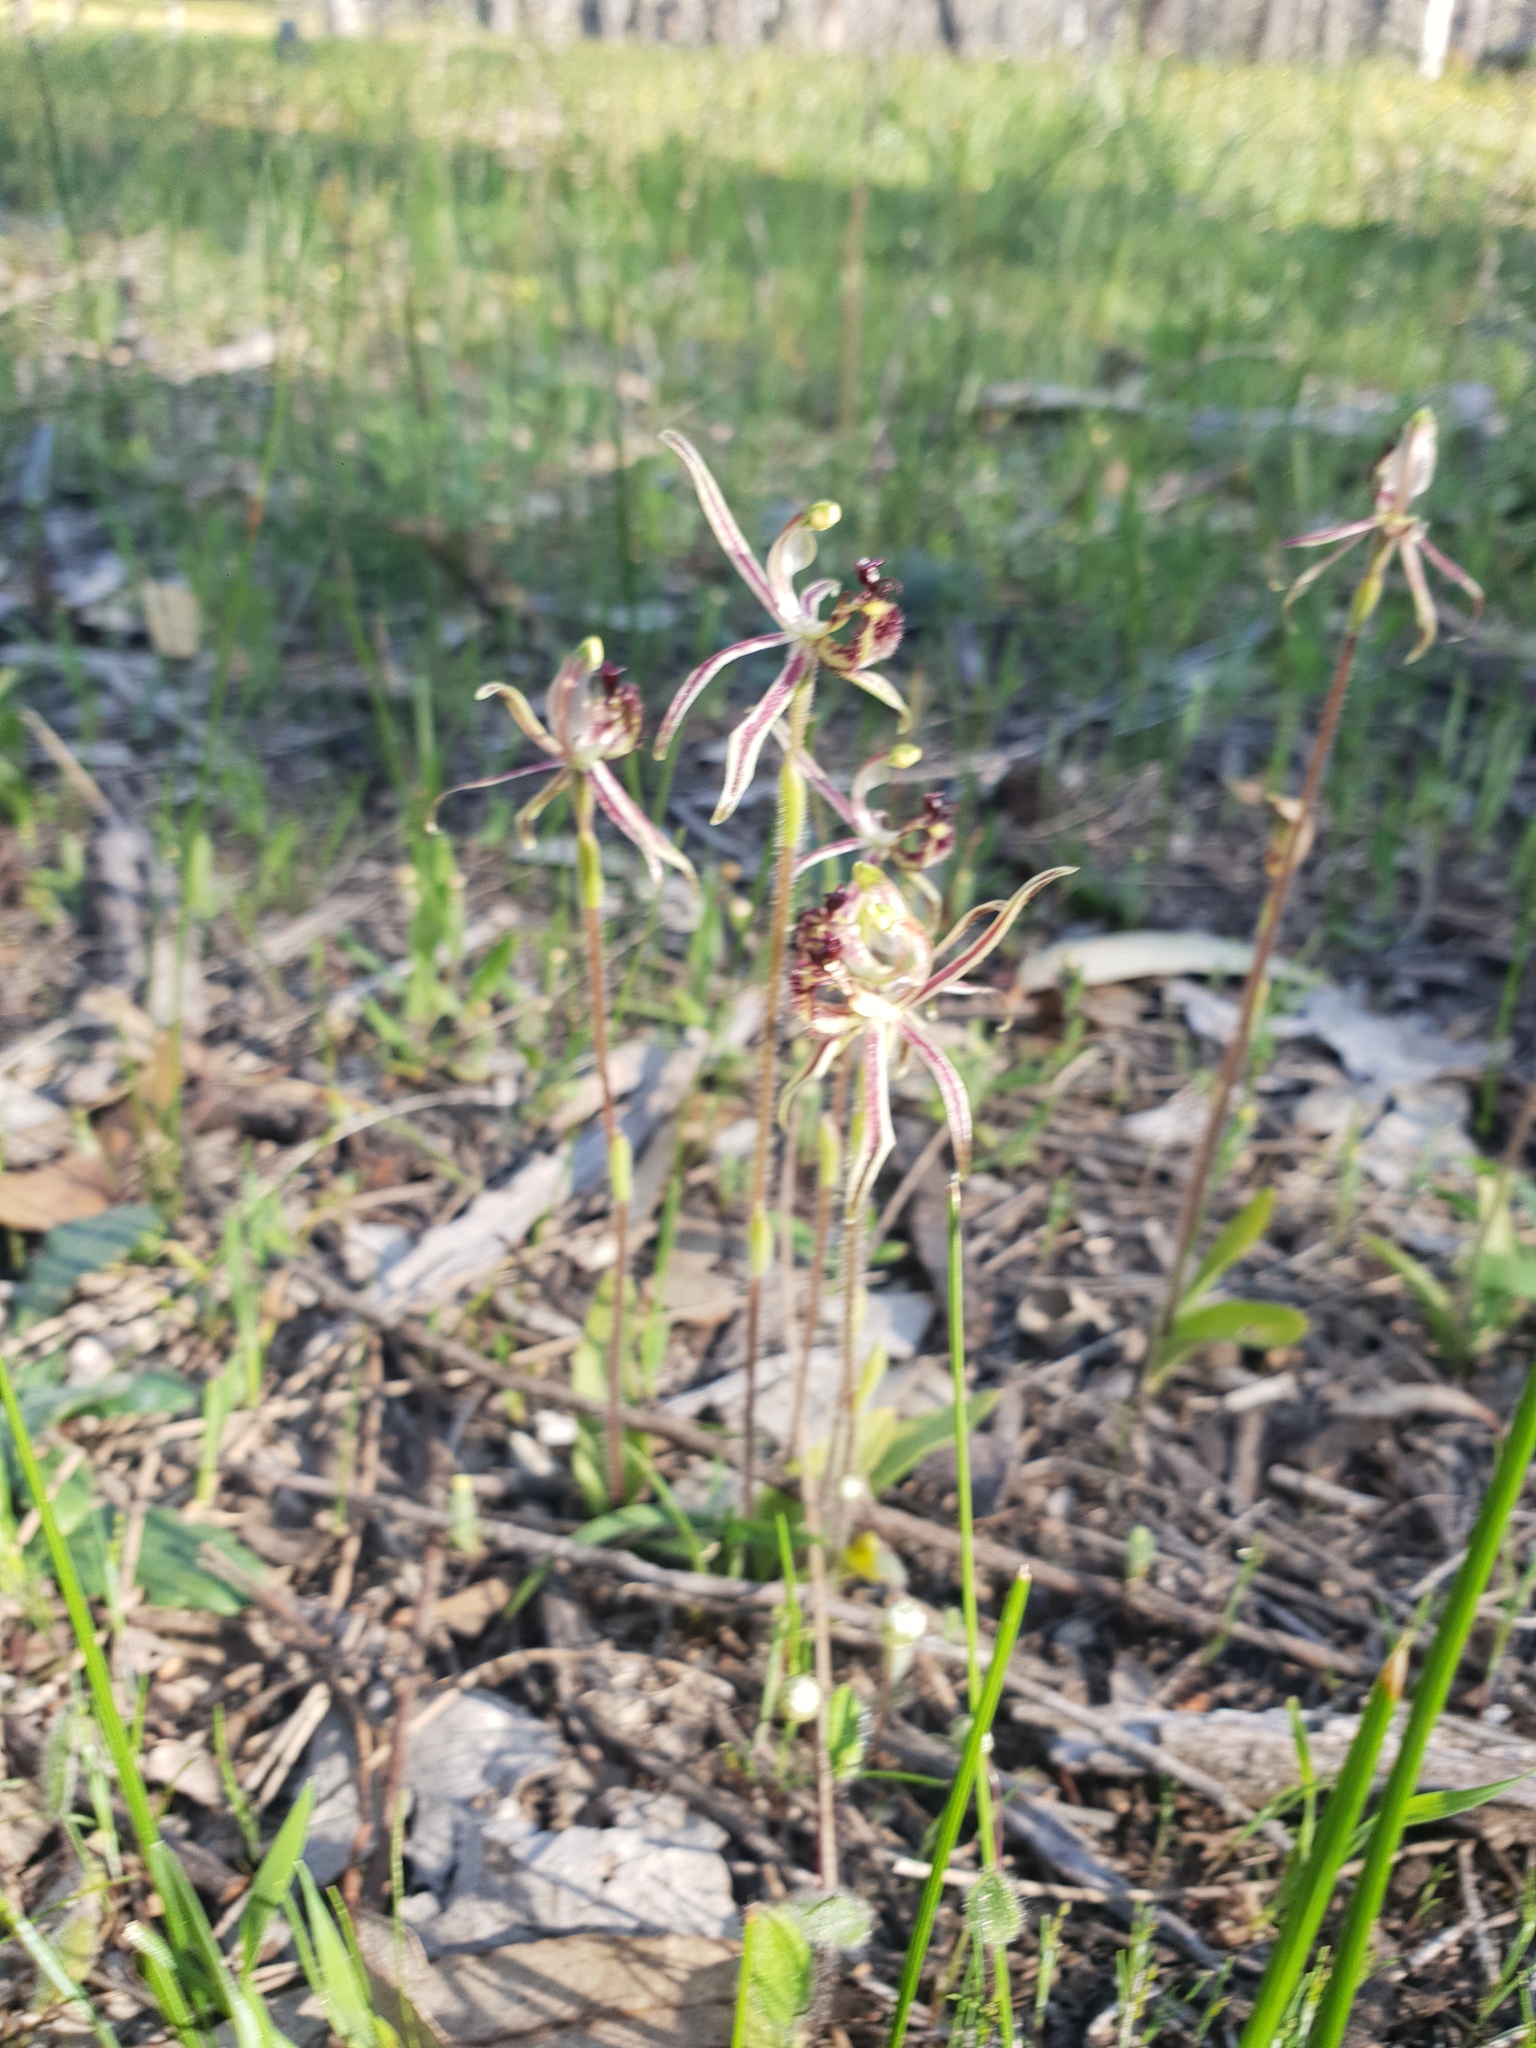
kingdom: Plantae
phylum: Tracheophyta
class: Liliopsida
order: Asparagales
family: Orchidaceae
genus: Caladenia
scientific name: Caladenia barbarossa
